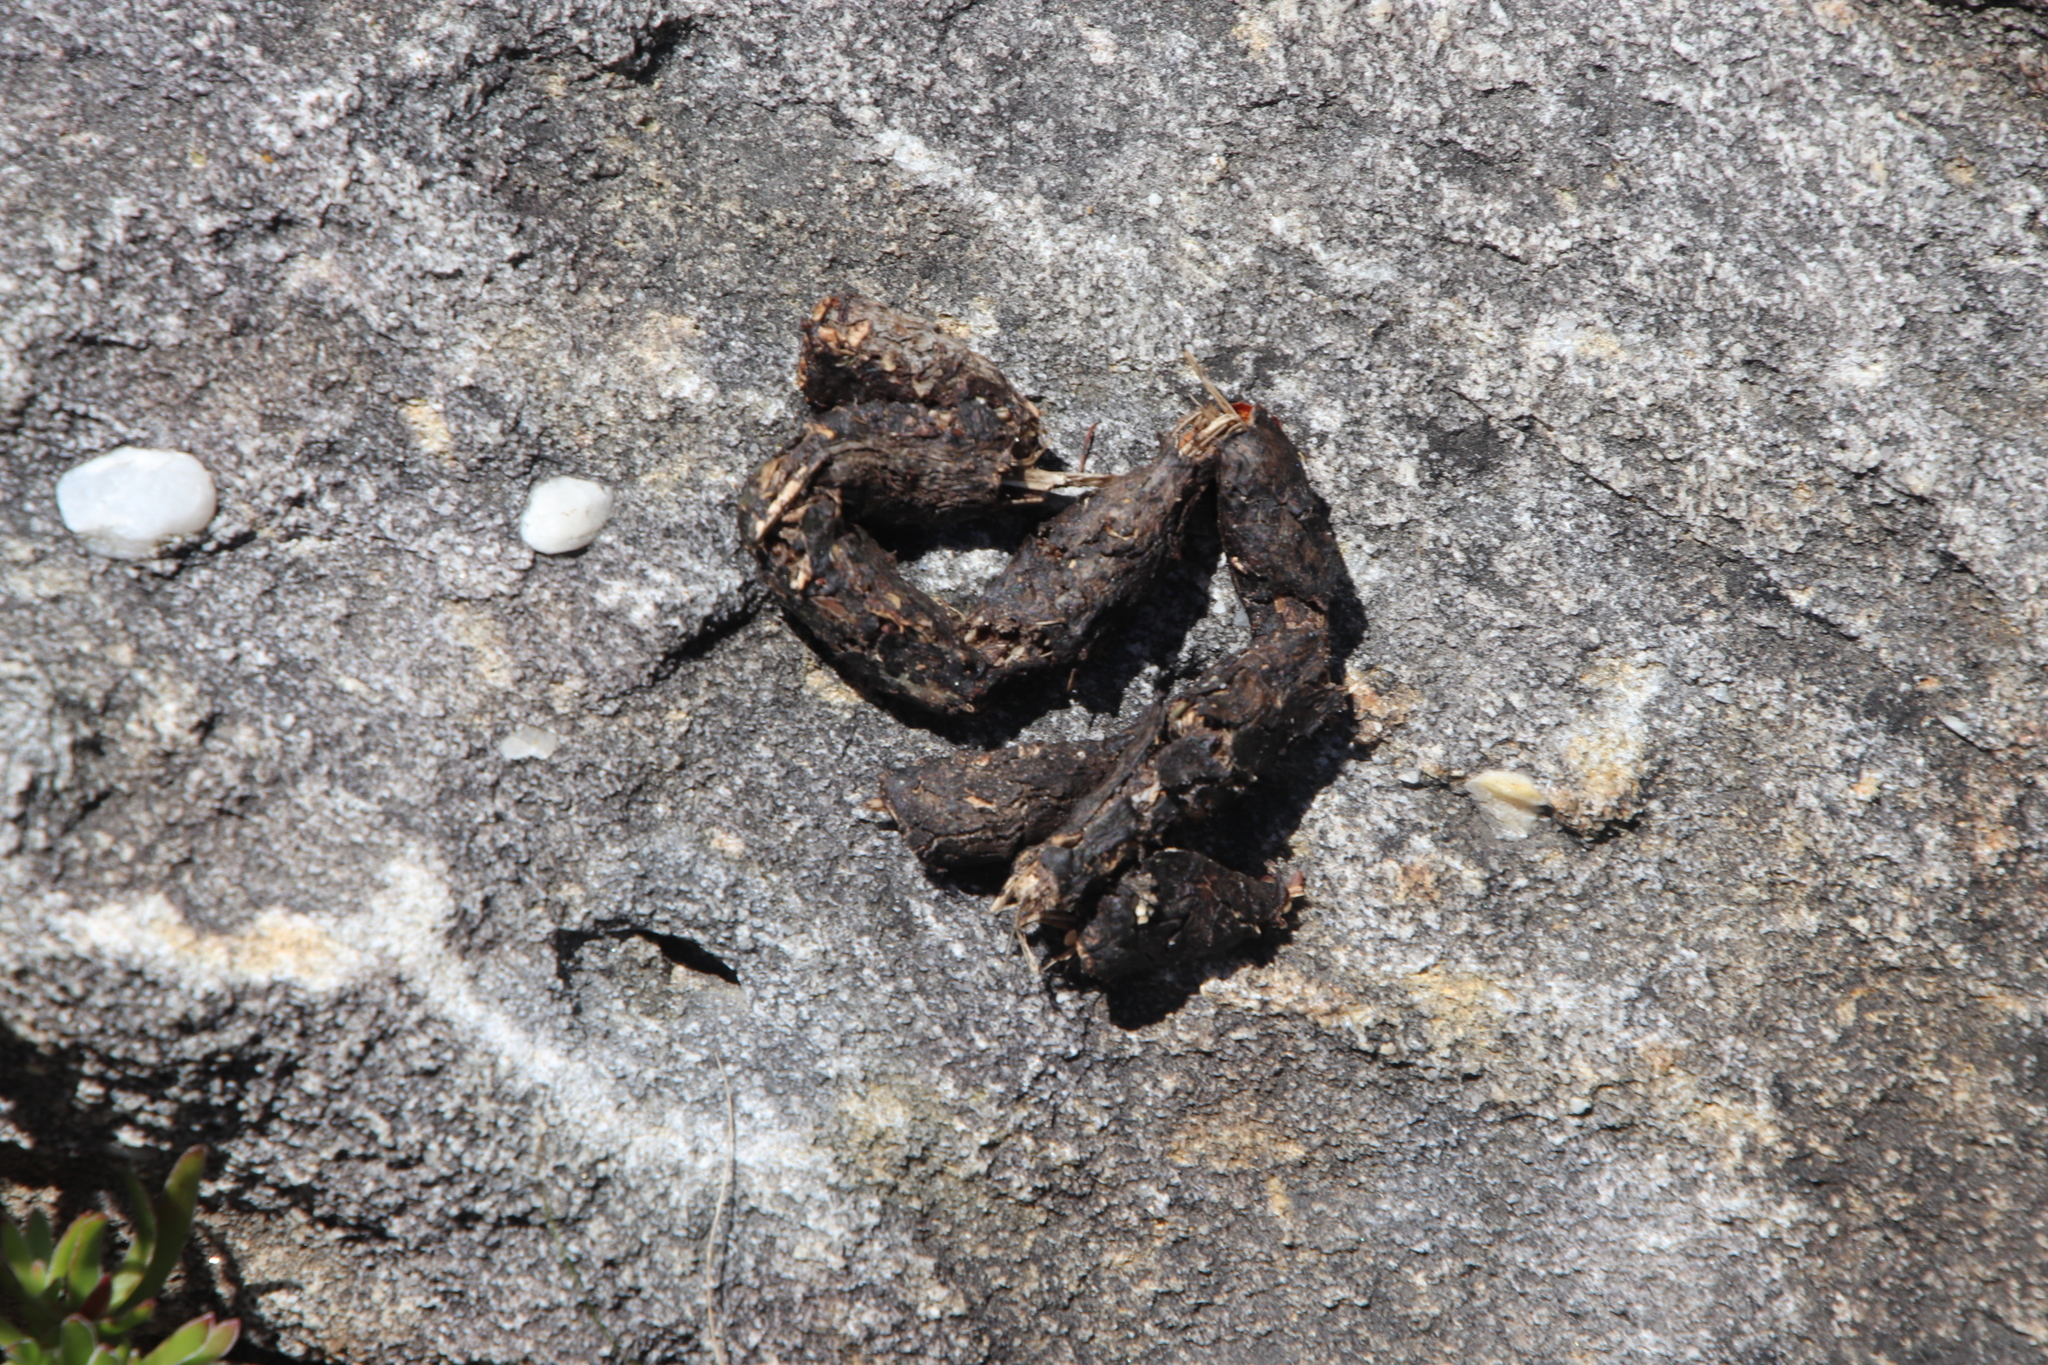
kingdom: Animalia
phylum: Chordata
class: Mammalia
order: Rodentia
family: Hystricidae
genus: Hystrix
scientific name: Hystrix africaeaustralis
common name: Cape porcupine
